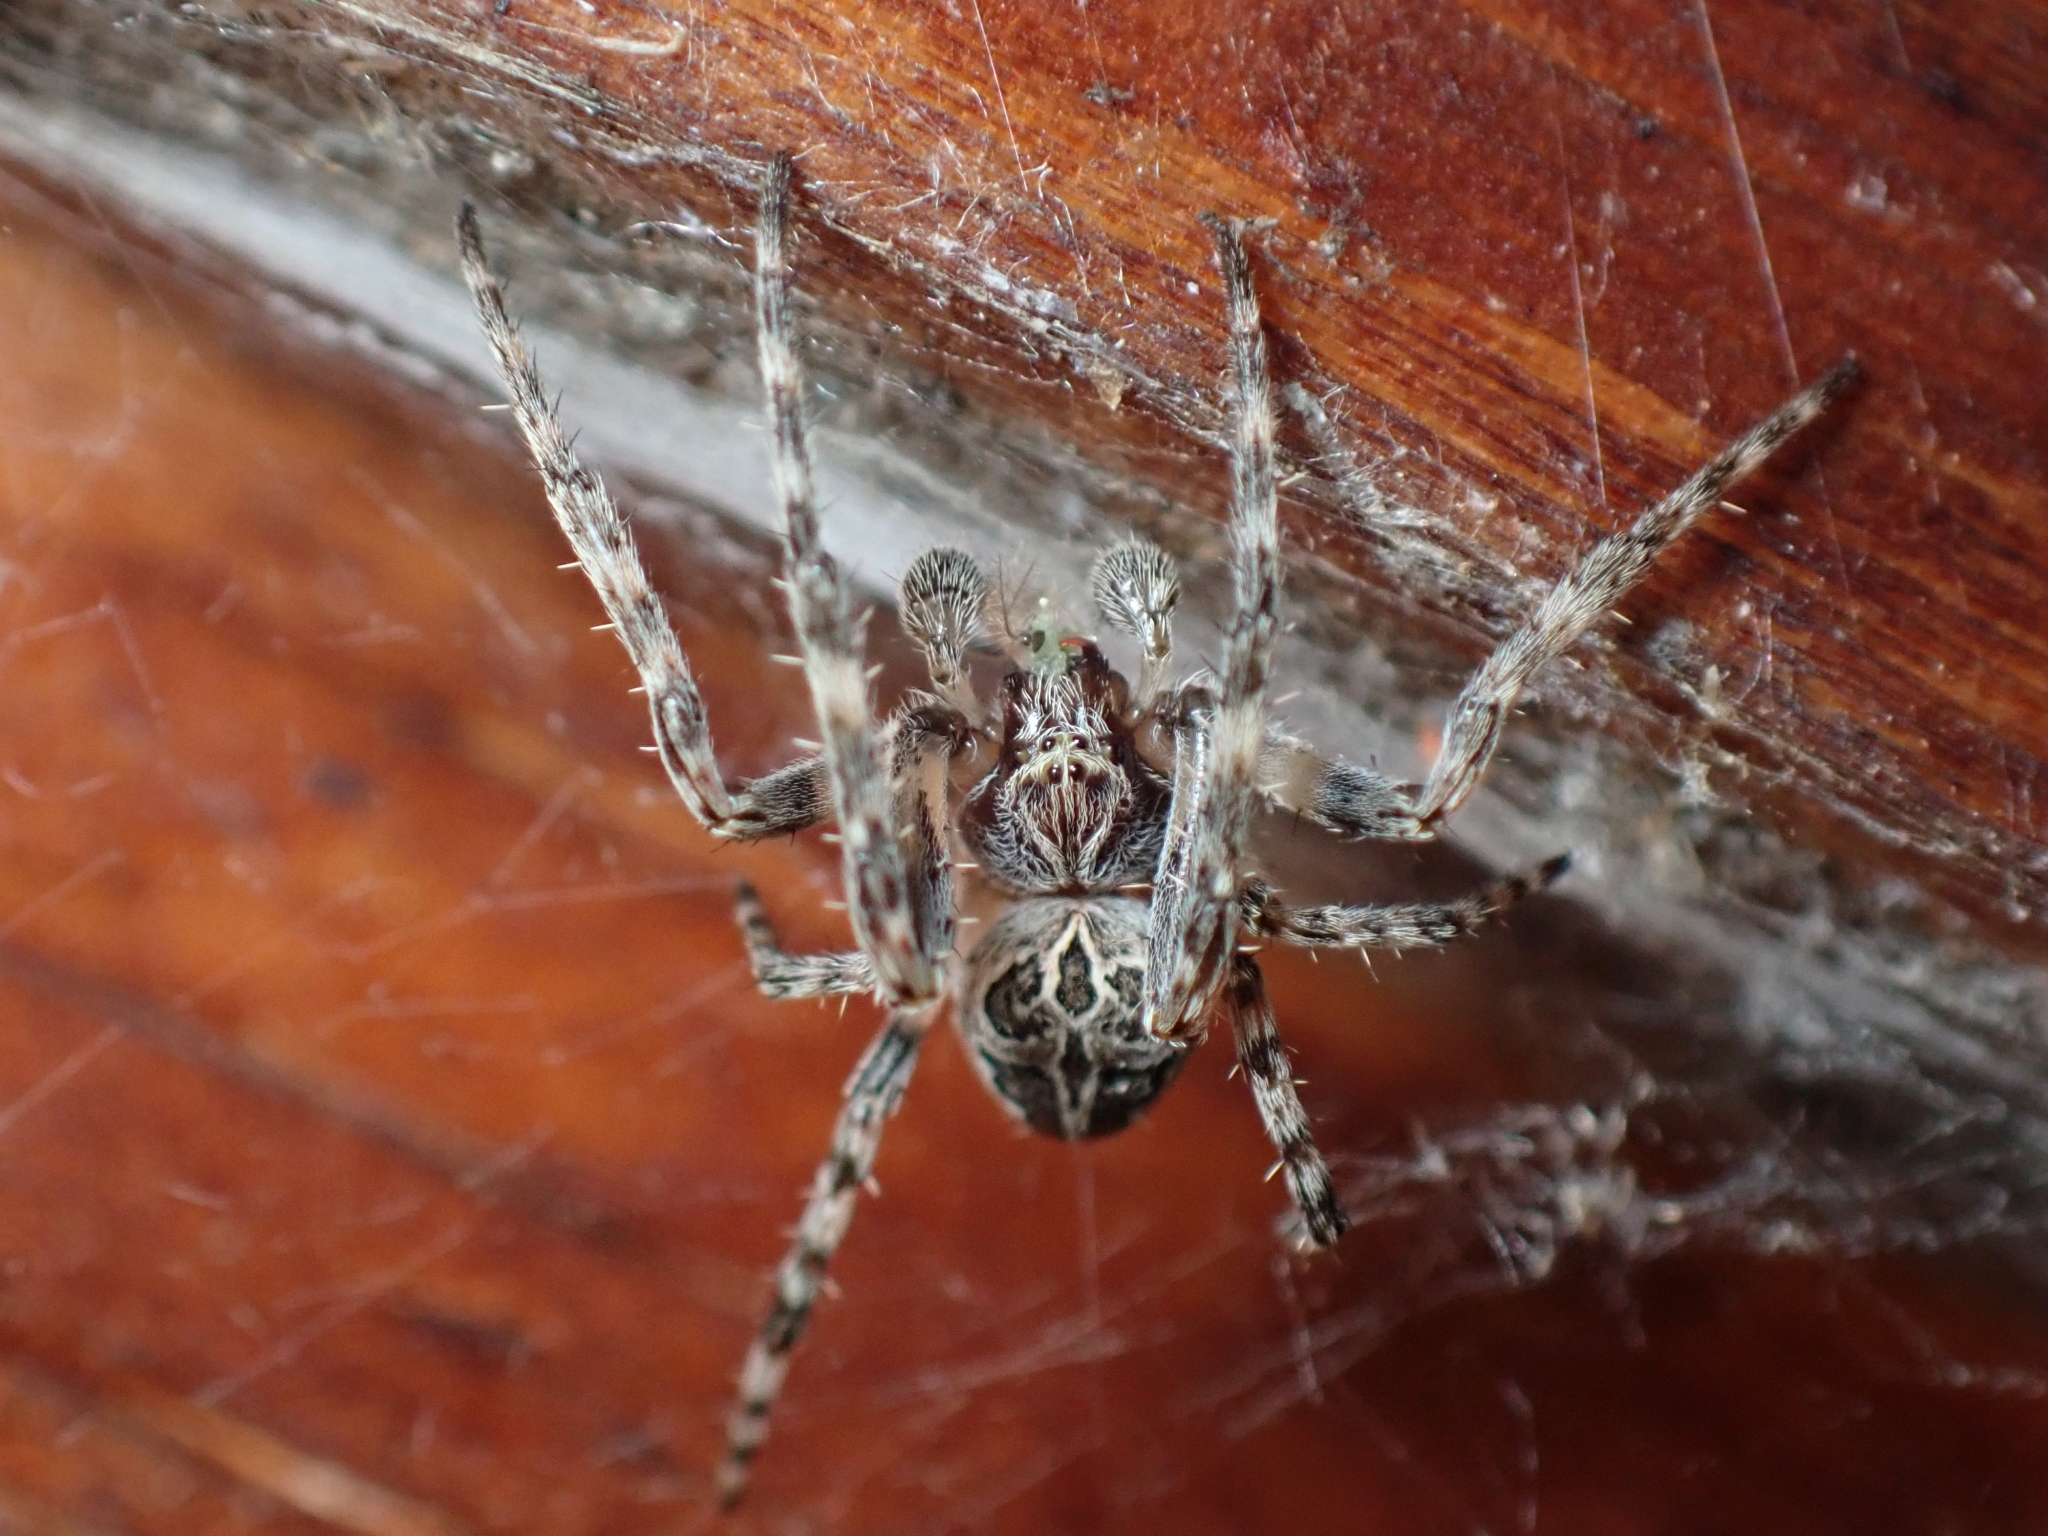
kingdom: Animalia
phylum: Arthropoda
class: Arachnida
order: Araneae
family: Araneidae
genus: Larinioides
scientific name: Larinioides sclopetarius
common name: Bridge orbweaver
